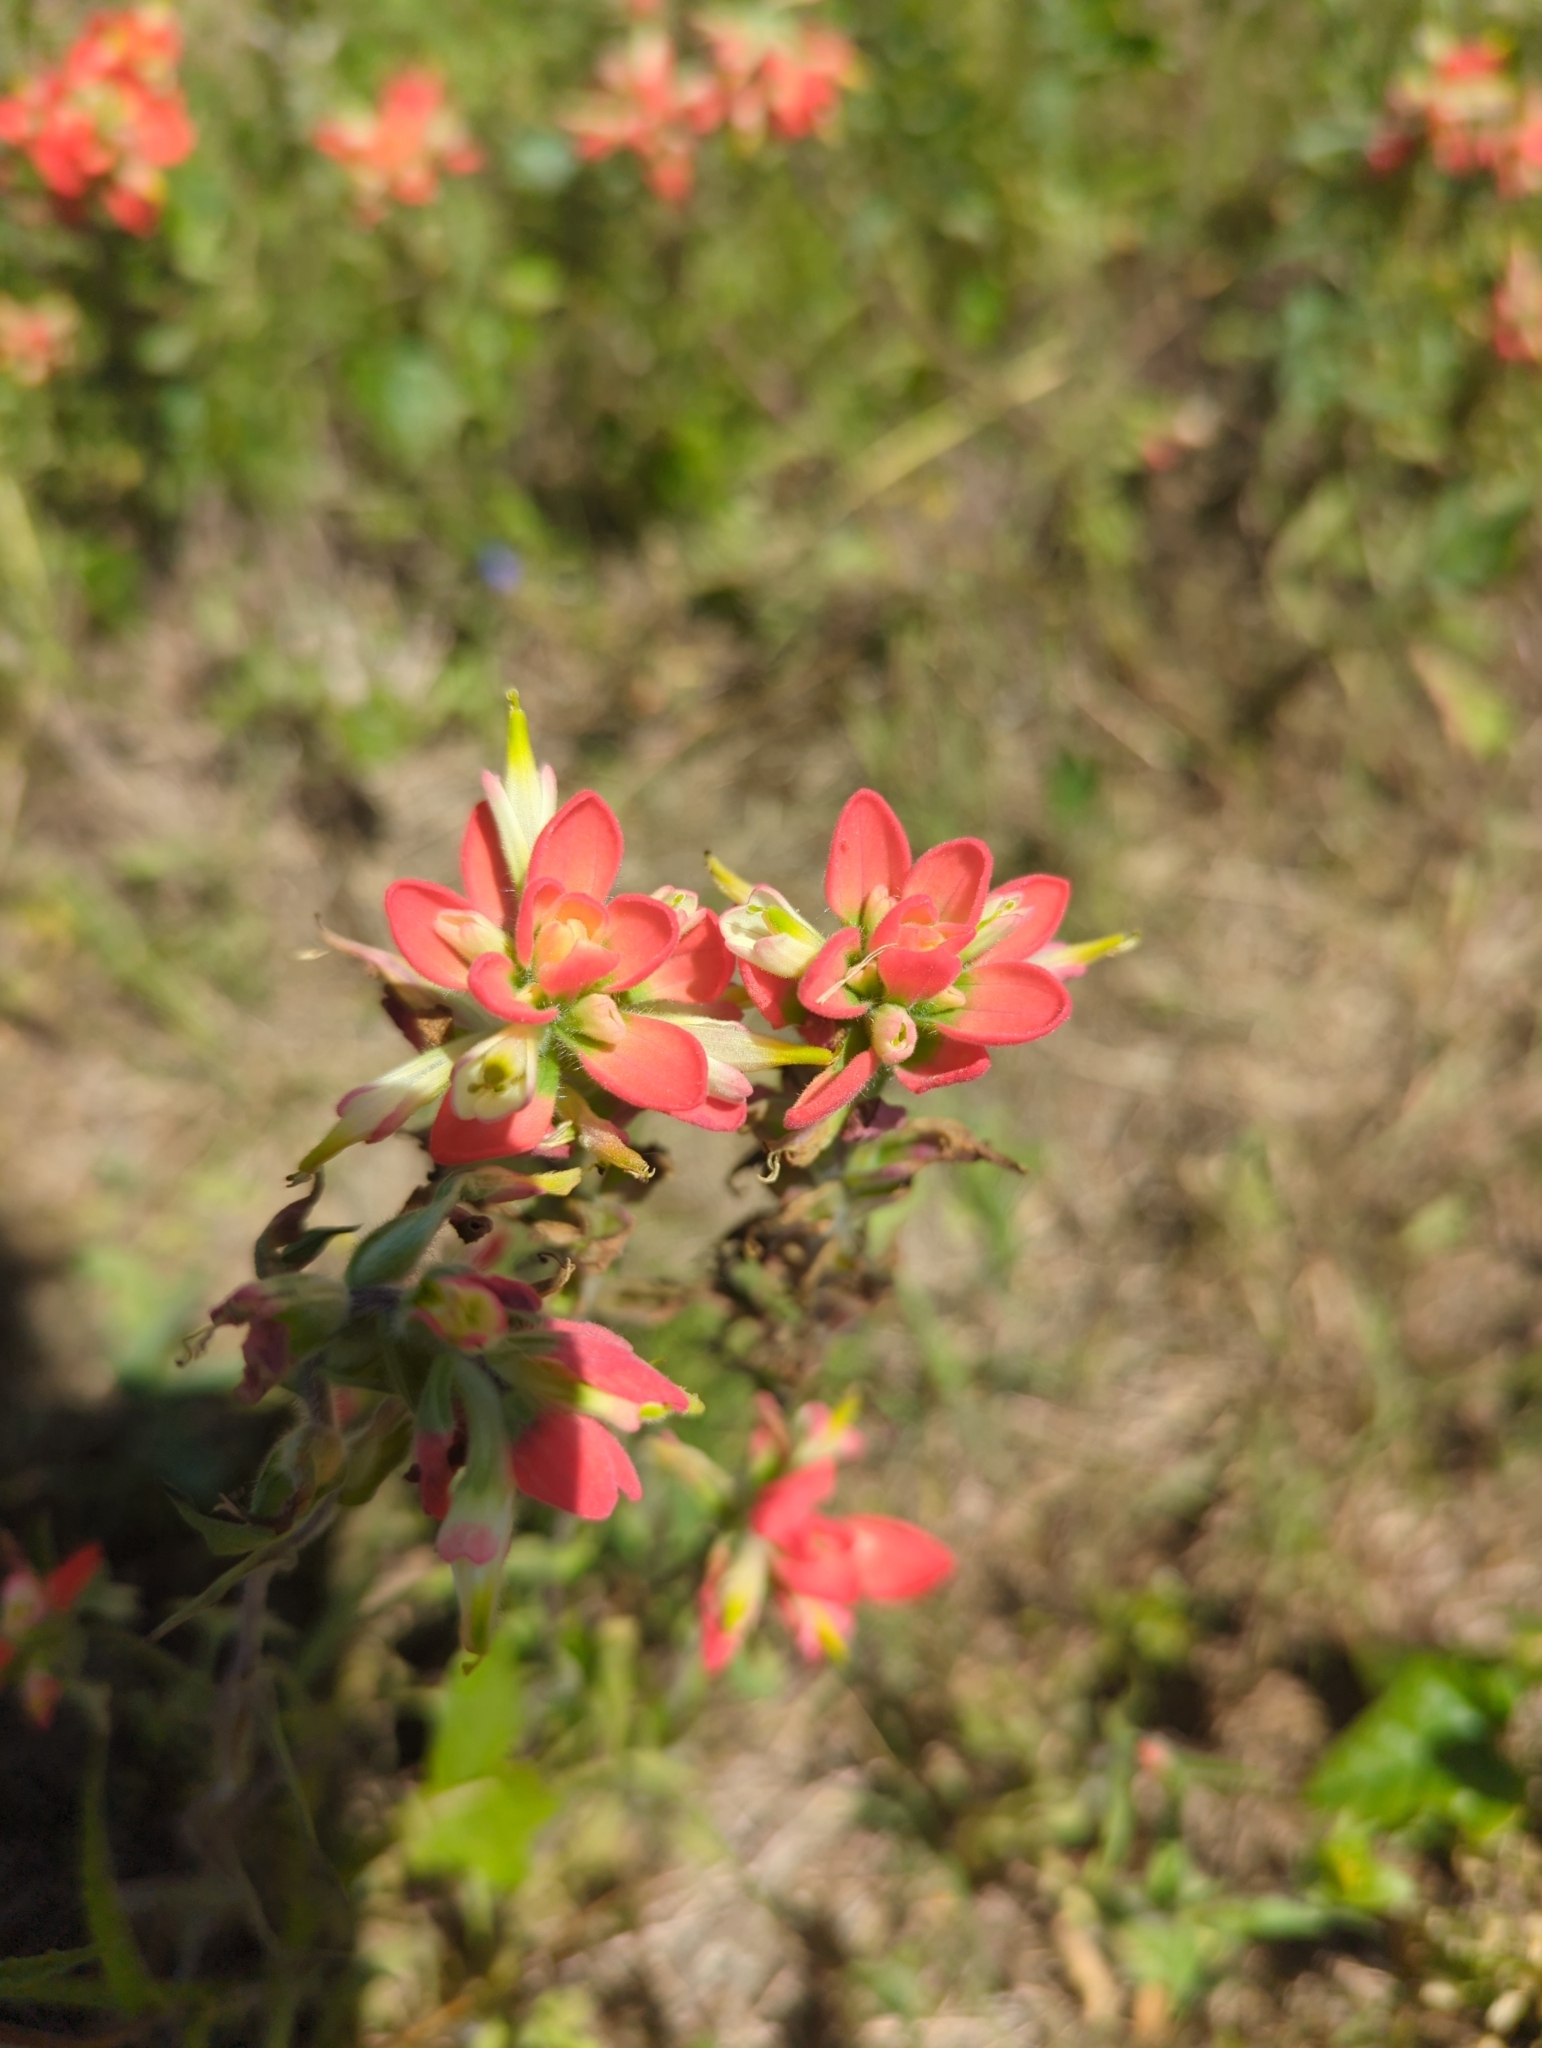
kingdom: Plantae
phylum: Tracheophyta
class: Magnoliopsida
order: Lamiales
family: Orobanchaceae
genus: Castilleja
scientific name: Castilleja indivisa
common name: Texas paintbrush
